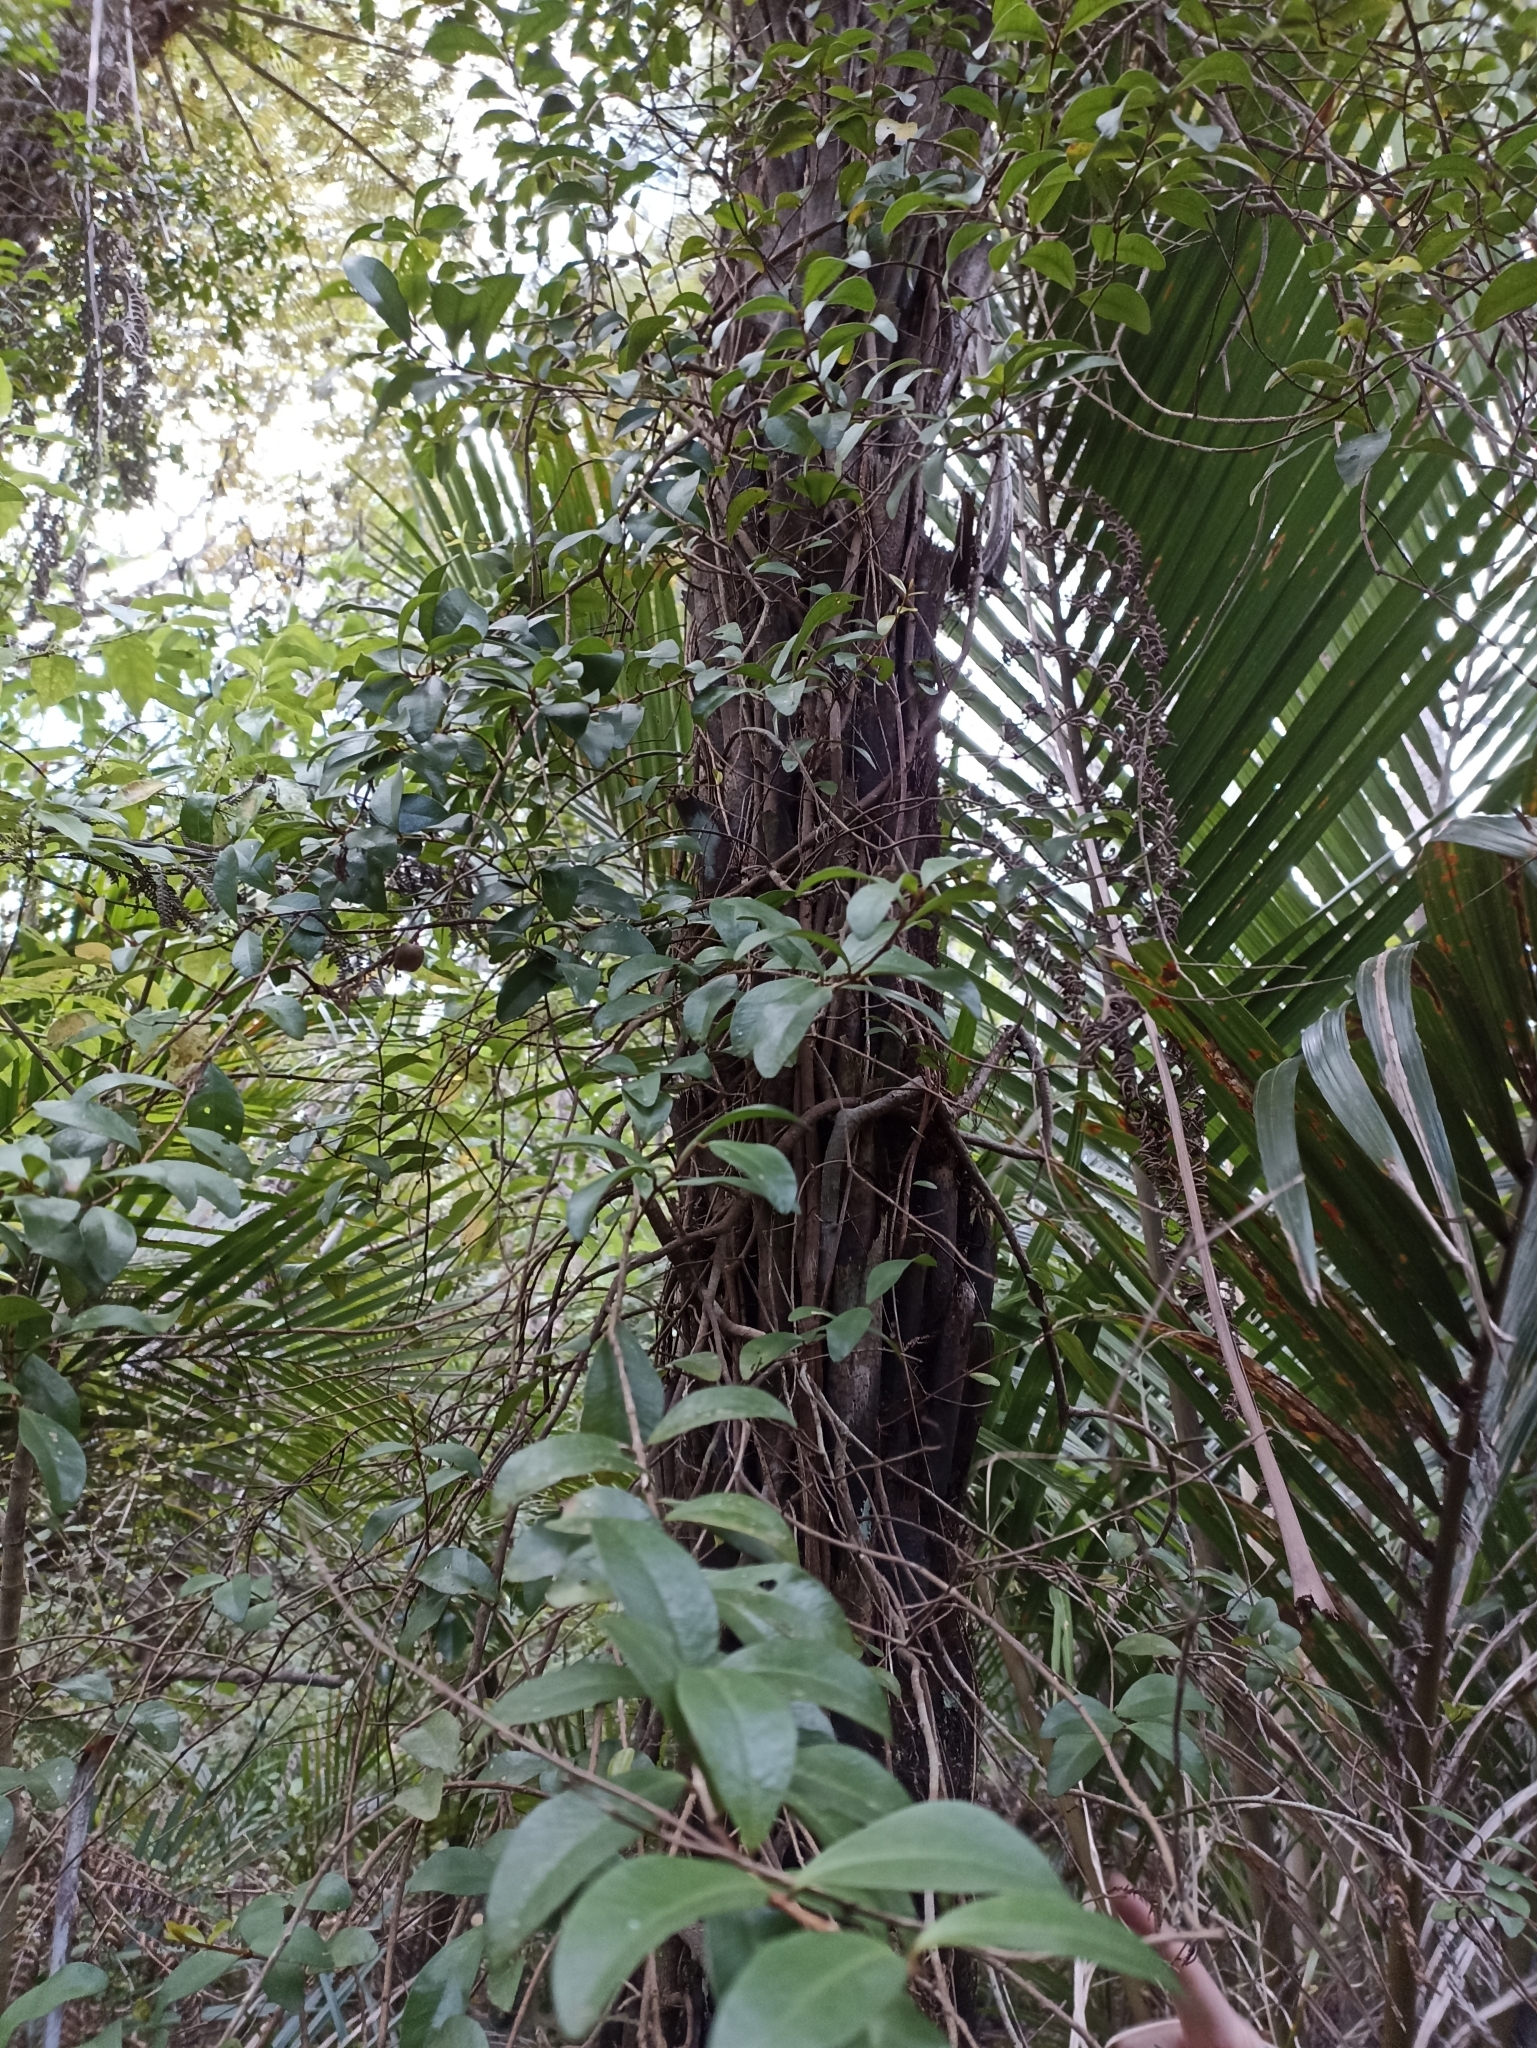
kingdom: Plantae
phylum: Tracheophyta
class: Magnoliopsida
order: Myrtales
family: Myrtaceae
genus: Metrosideros
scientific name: Metrosideros fulgens
